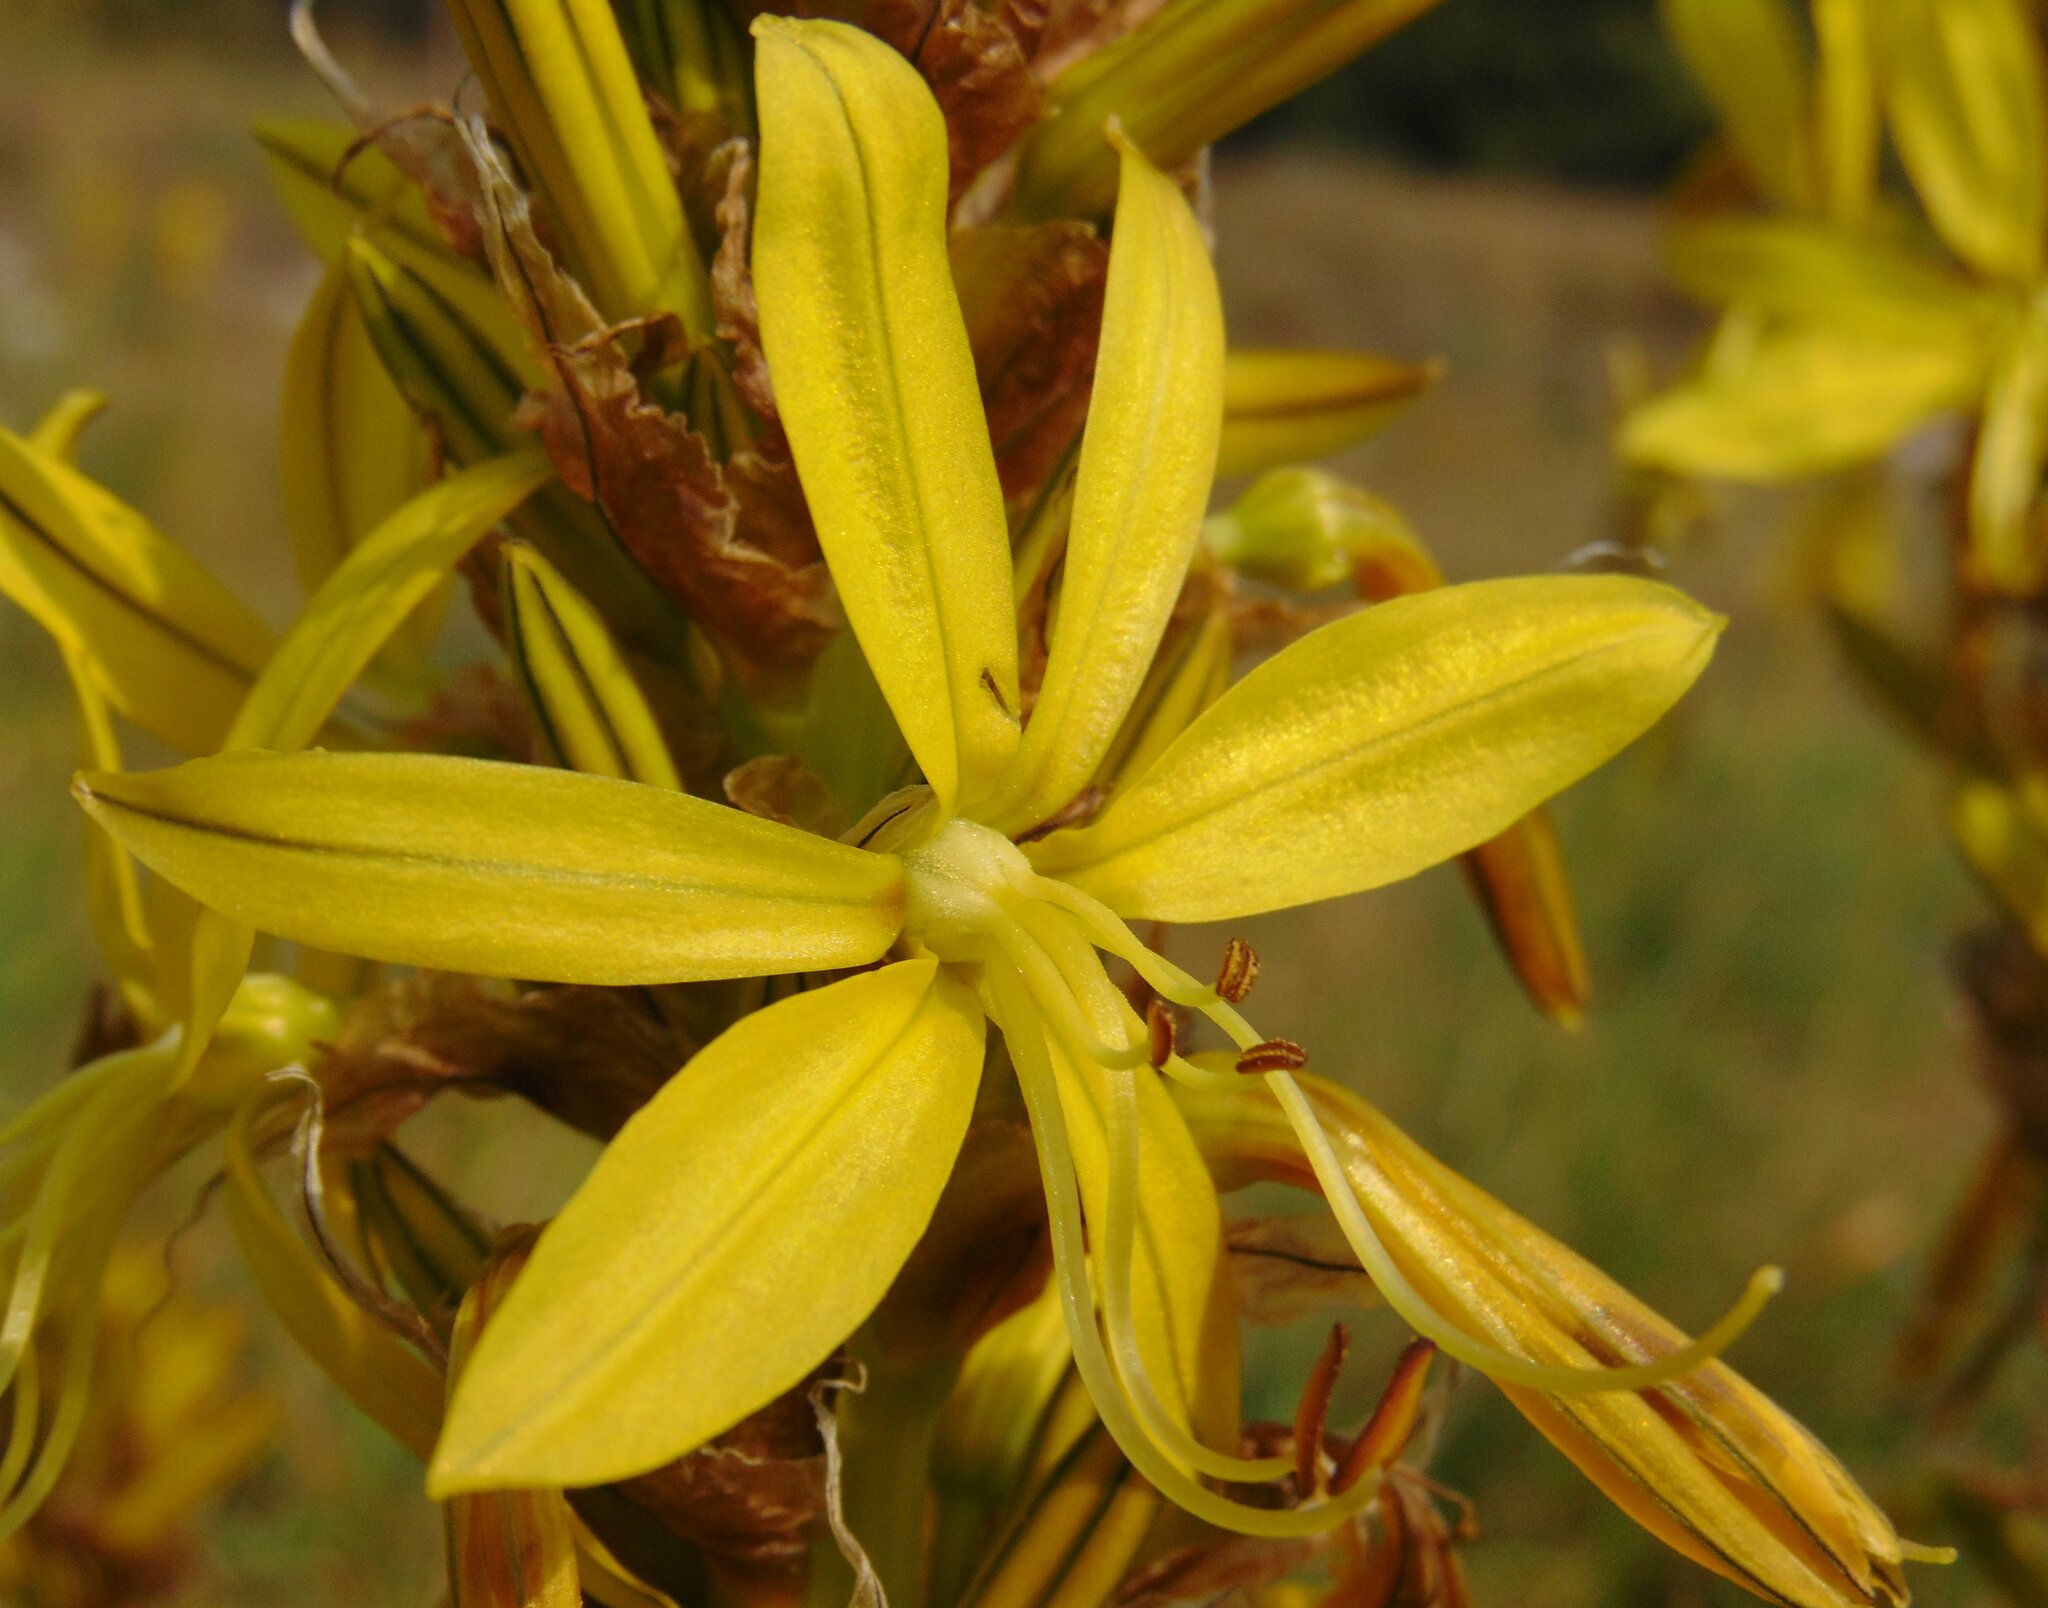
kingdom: Plantae
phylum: Tracheophyta
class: Liliopsida
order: Asparagales
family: Asphodelaceae
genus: Asphodeline
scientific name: Asphodeline lutea
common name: Yellow asphodel
